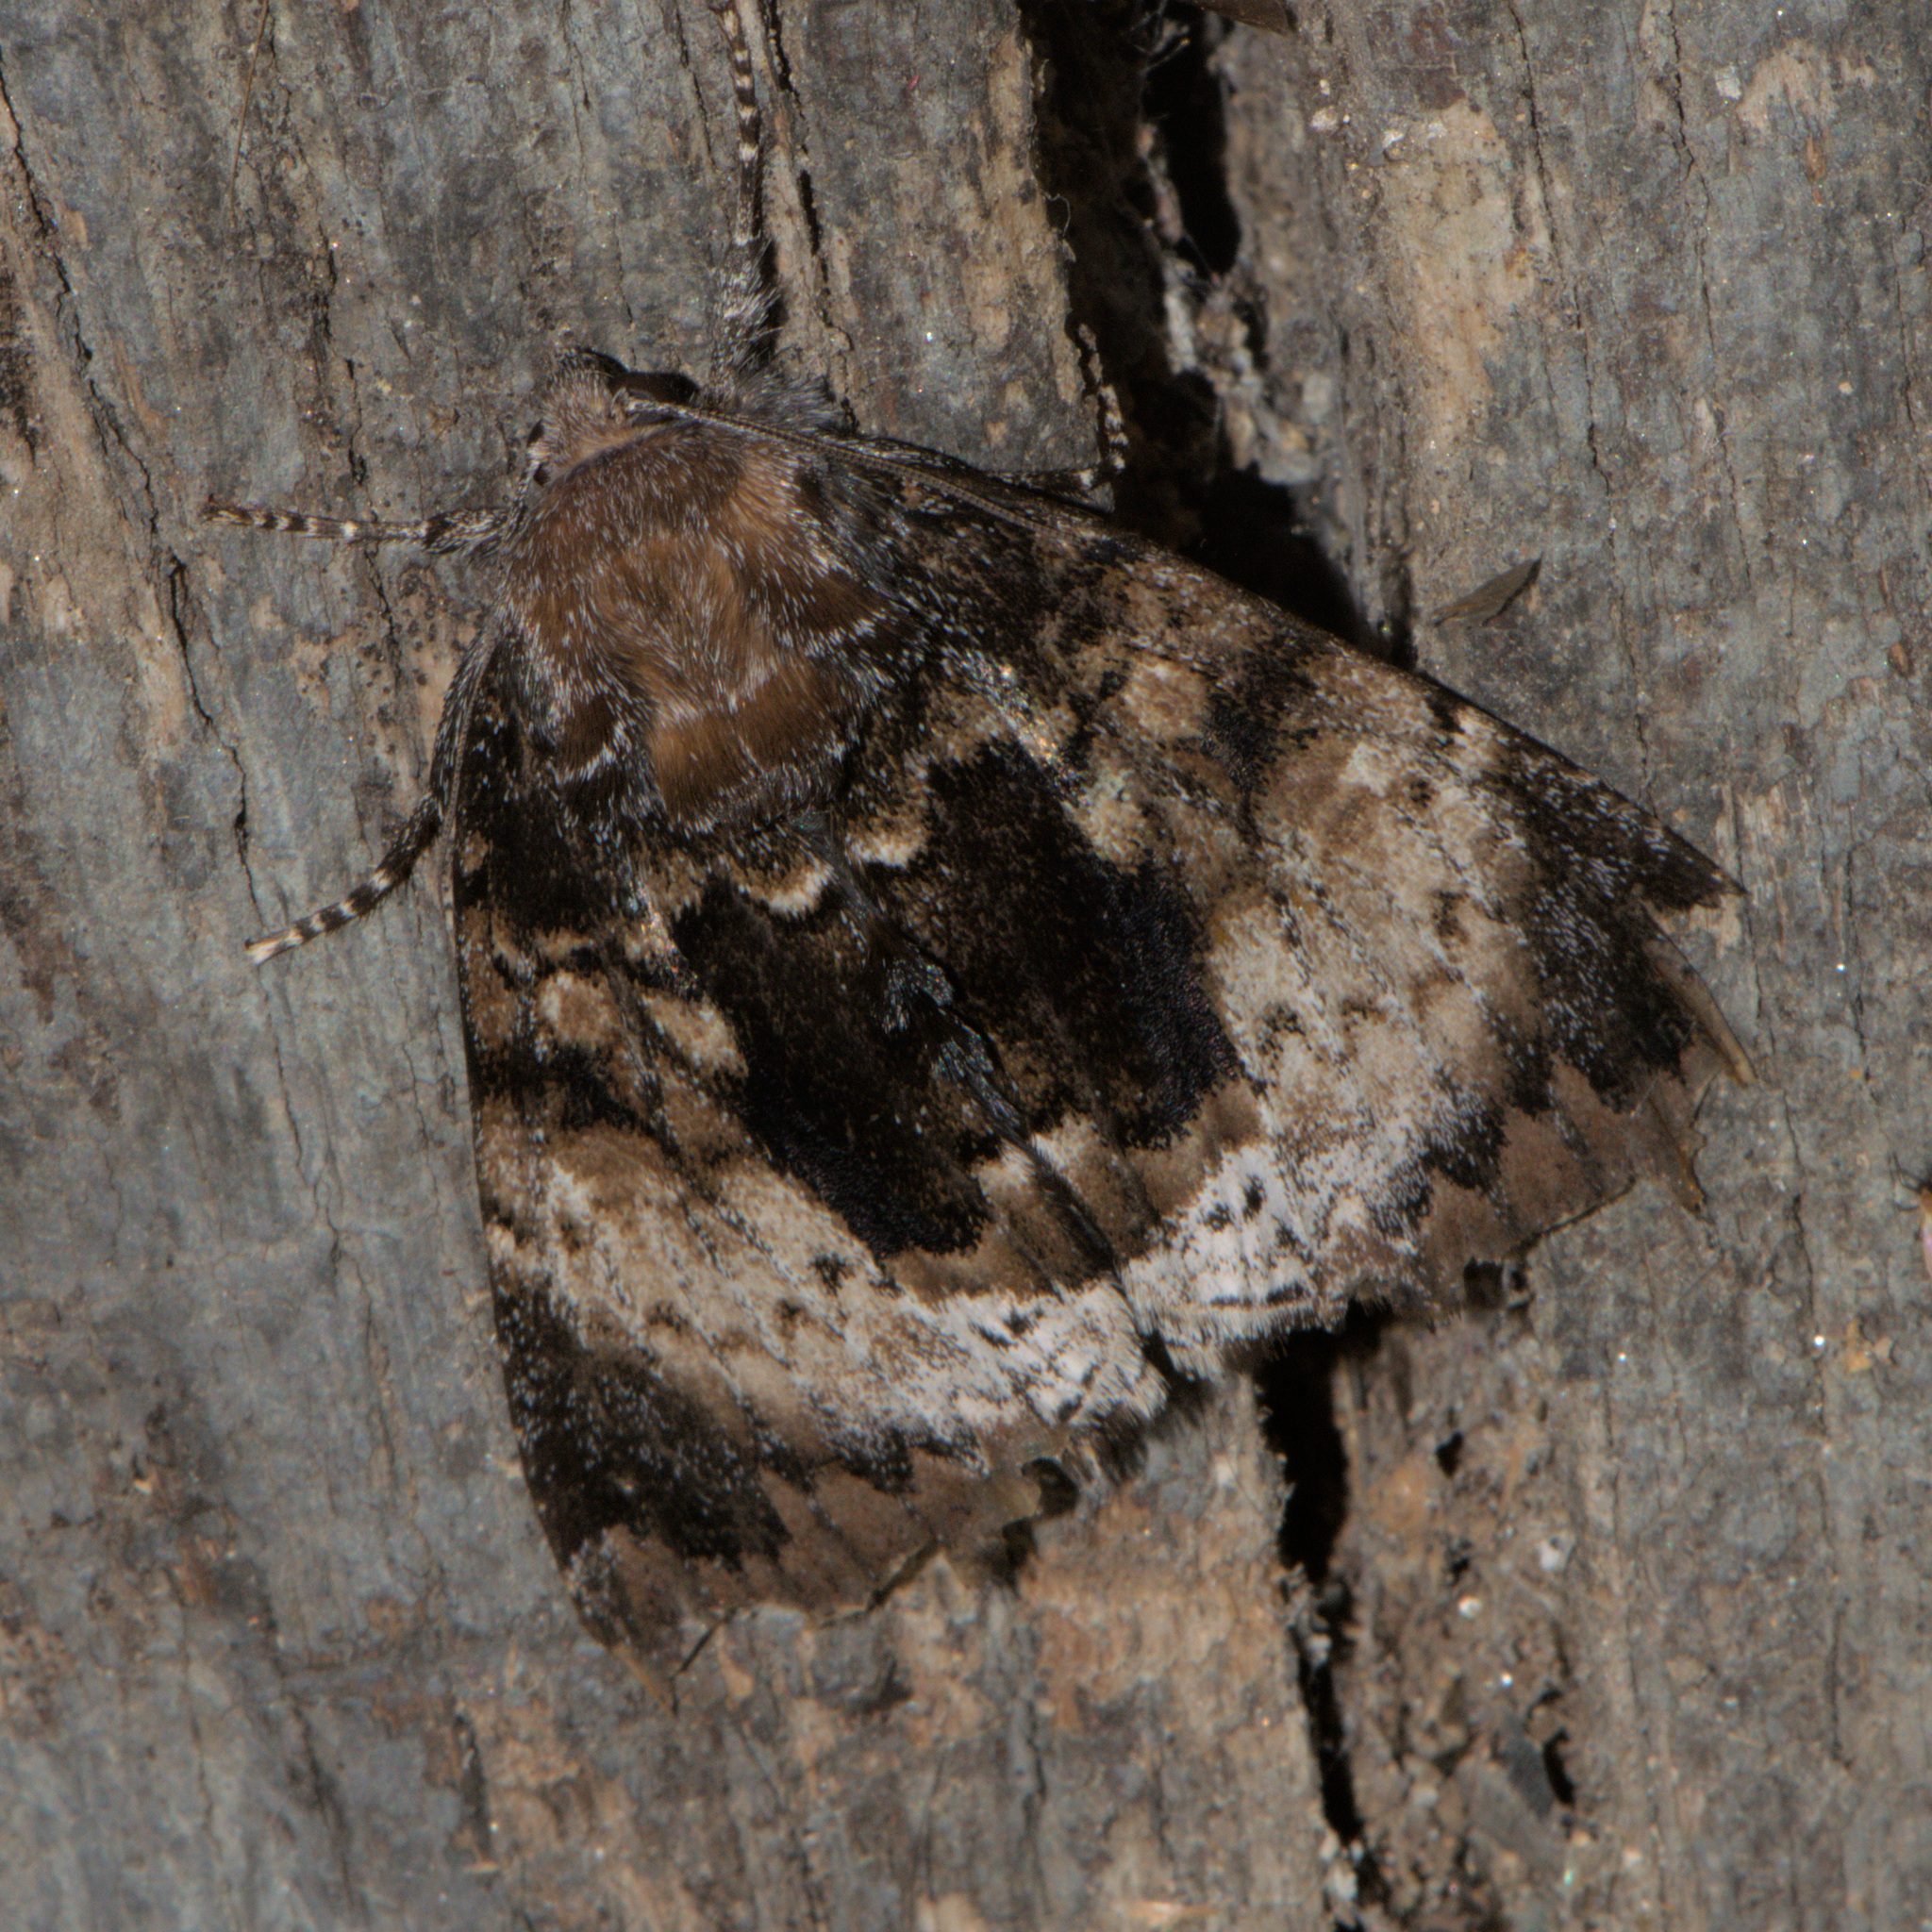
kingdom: Animalia
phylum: Arthropoda
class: Insecta
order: Lepidoptera
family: Noctuidae
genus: Disepholcia
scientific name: Disepholcia caerulea
